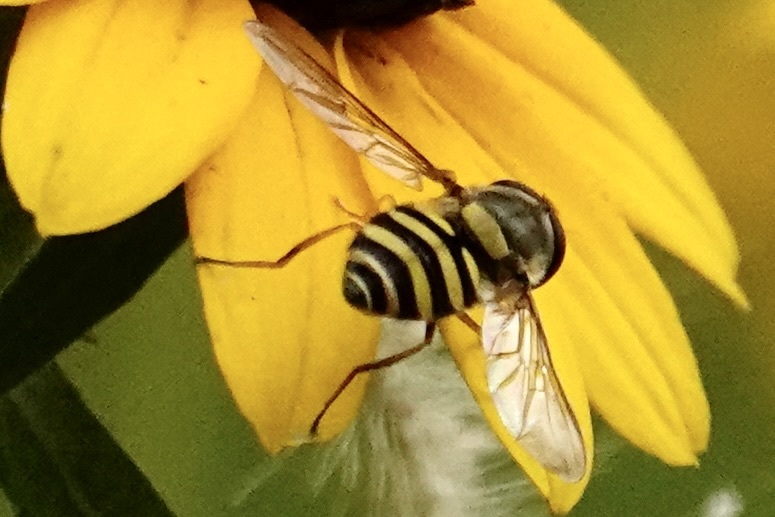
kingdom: Animalia
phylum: Arthropoda
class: Insecta
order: Diptera
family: Syrphidae
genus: Syrphus
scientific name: Syrphus
